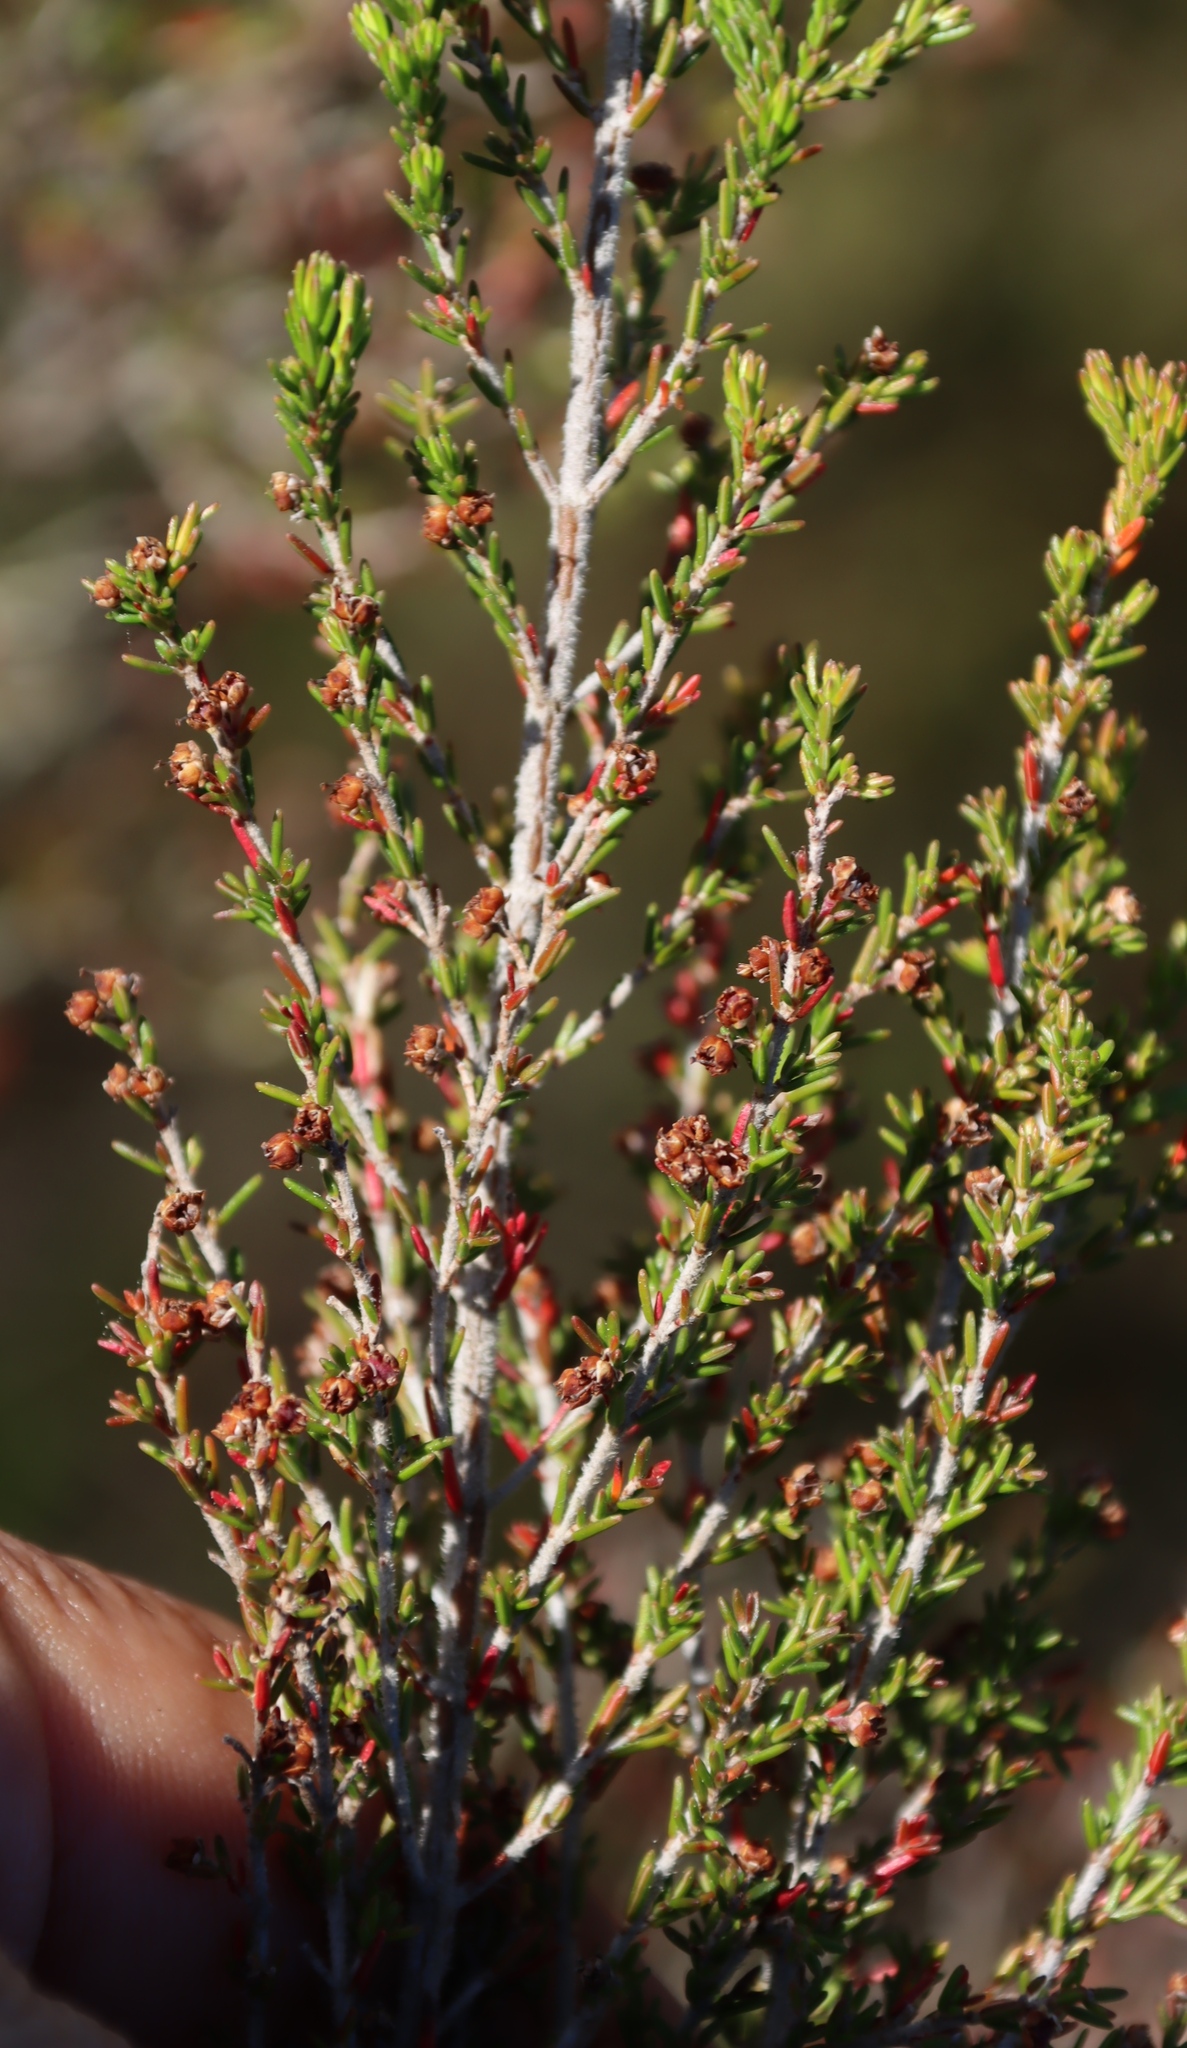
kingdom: Plantae
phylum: Tracheophyta
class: Magnoliopsida
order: Ericales
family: Ericaceae
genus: Erica
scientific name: Erica sparsa
